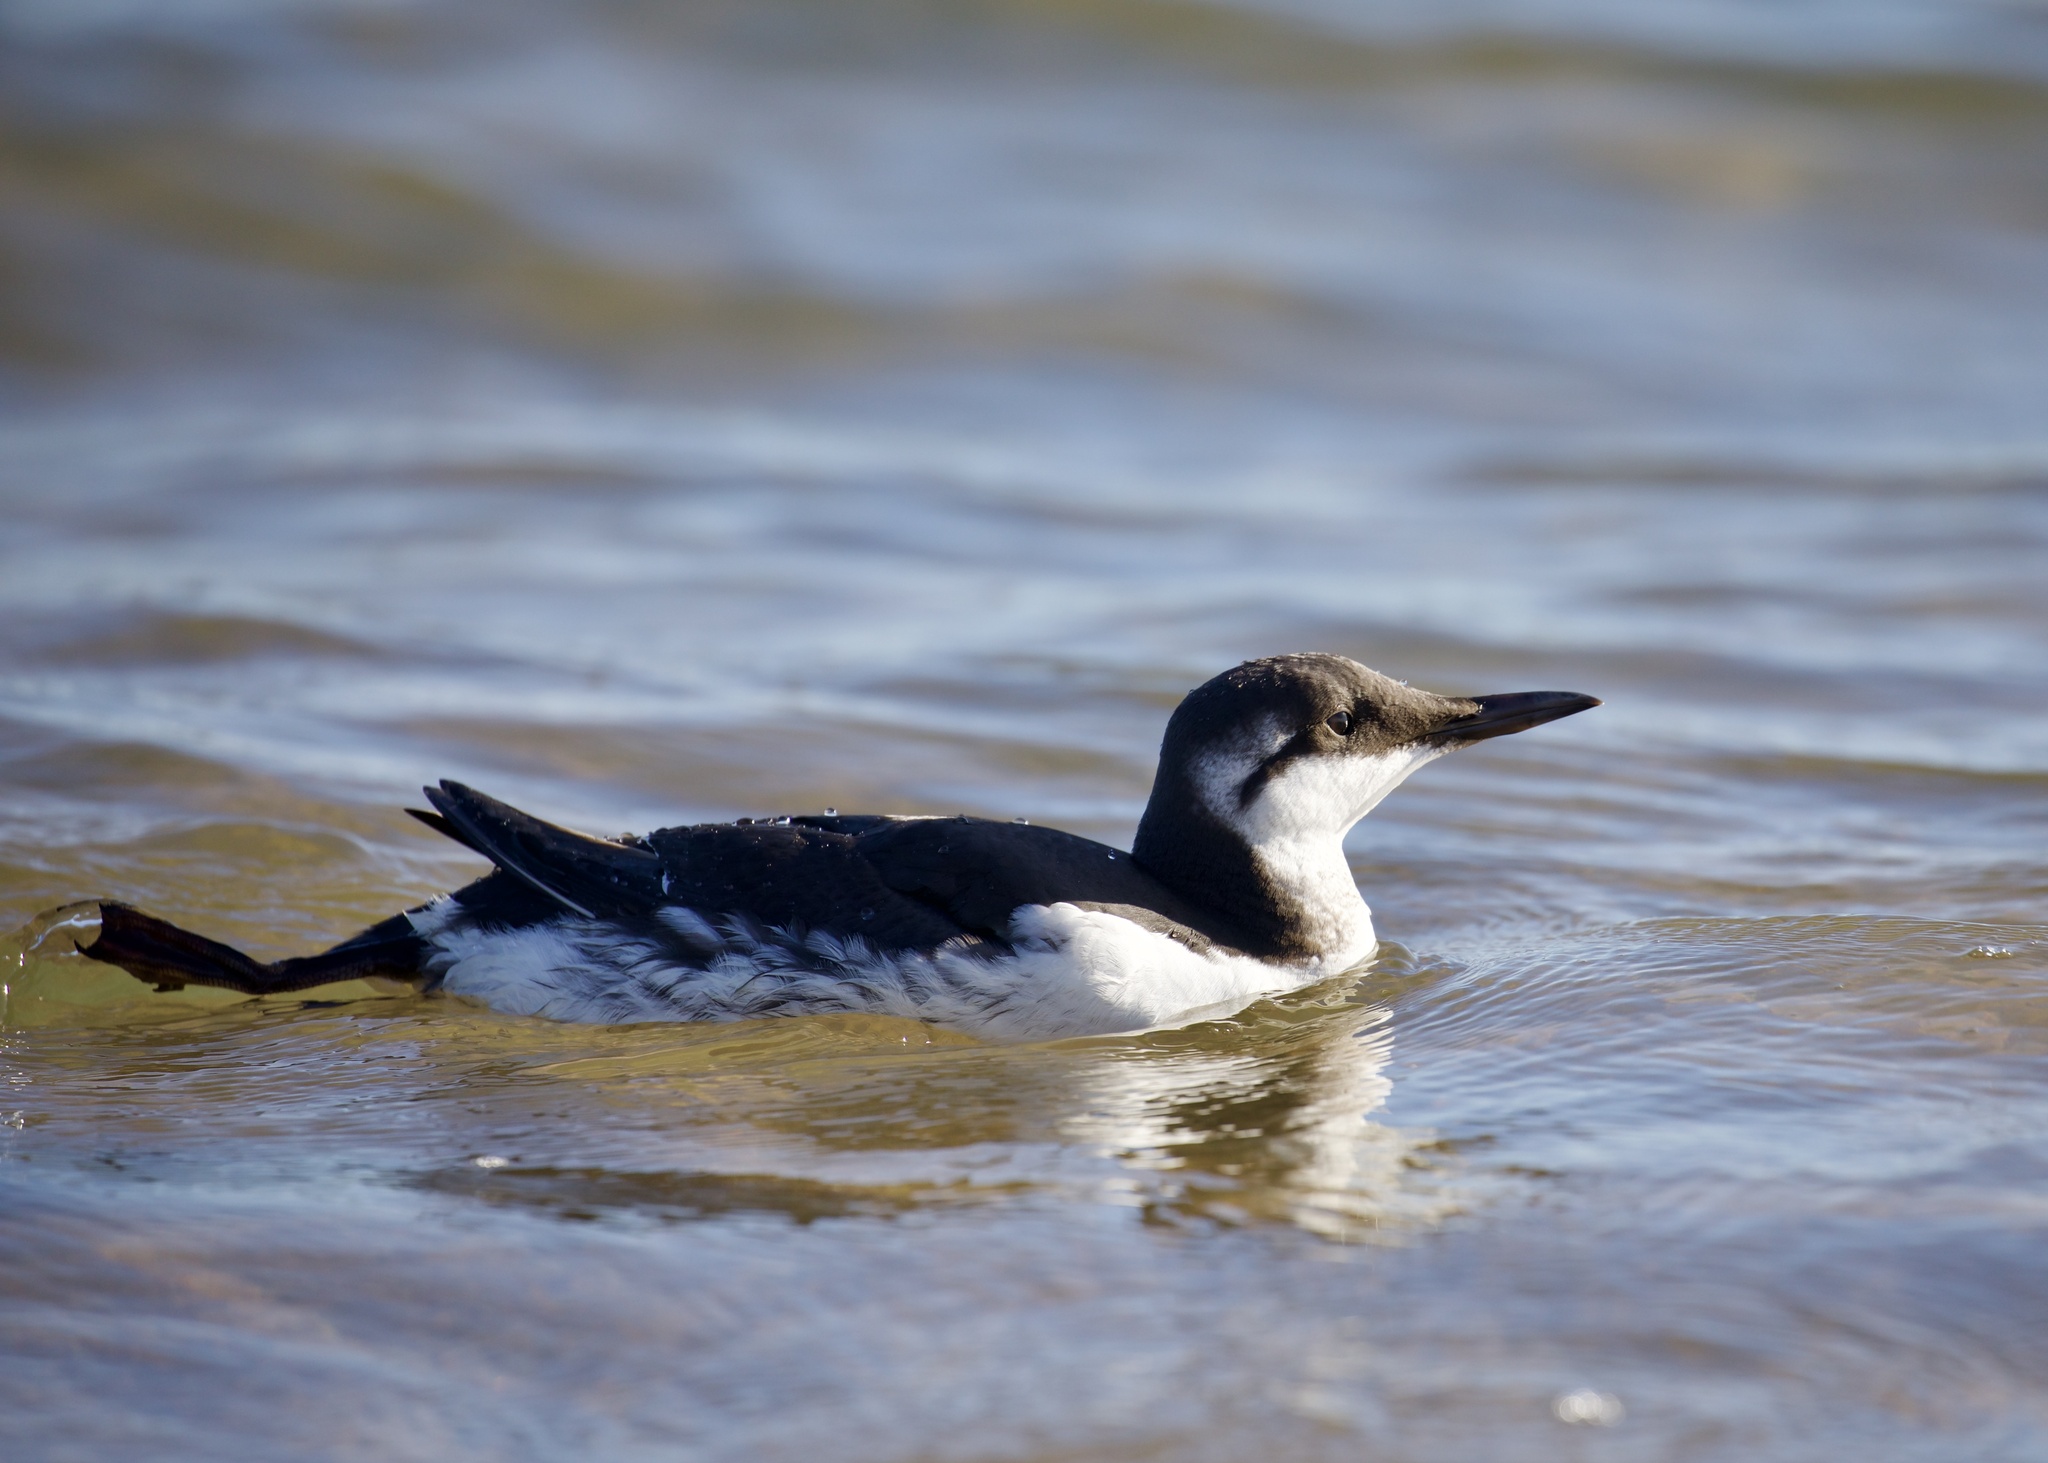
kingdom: Animalia
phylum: Chordata
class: Aves
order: Charadriiformes
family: Alcidae
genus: Uria
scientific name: Uria aalge
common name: Common murre
